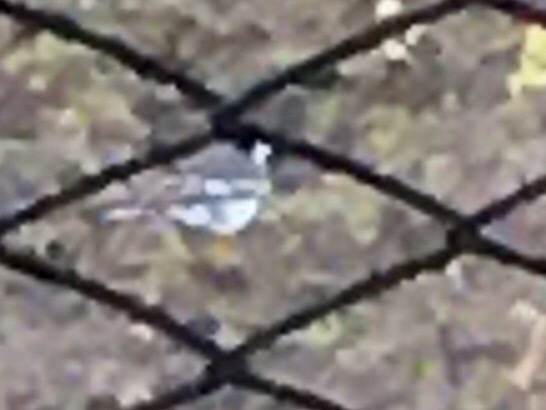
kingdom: Animalia
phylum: Chordata
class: Aves
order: Passeriformes
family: Motacillidae
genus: Motacilla
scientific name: Motacilla alba
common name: White wagtail
